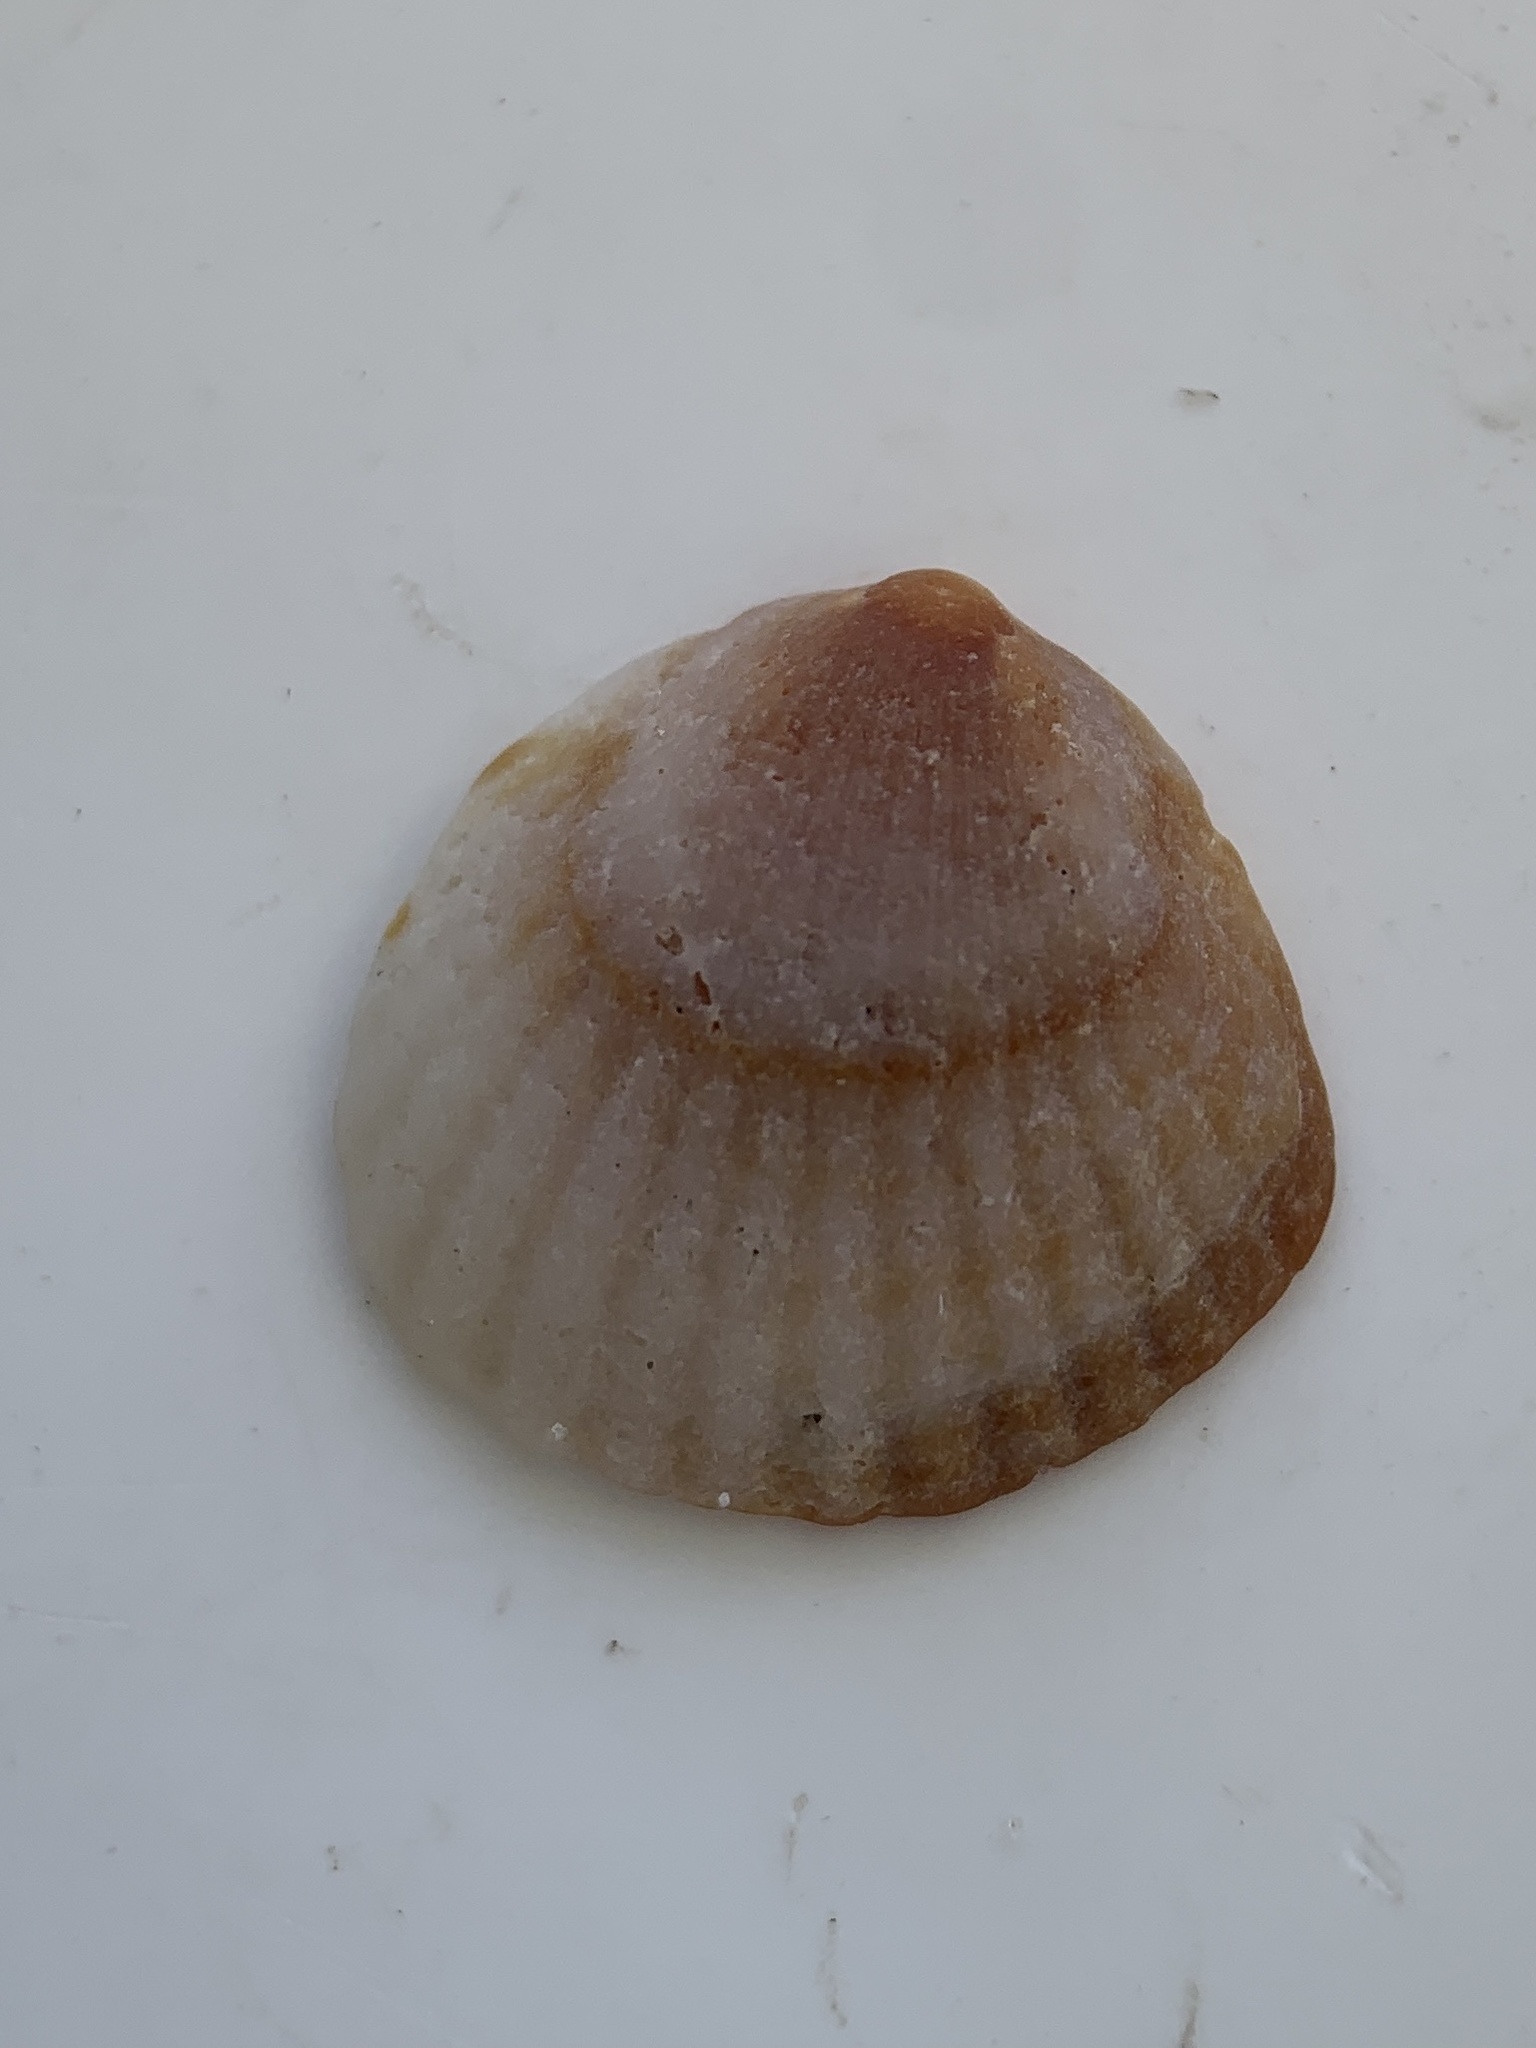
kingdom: Animalia
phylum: Mollusca
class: Bivalvia
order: Arcida
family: Glycymerididae
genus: Tucetona
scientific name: Tucetona pectinata
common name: Comb bittersweet
